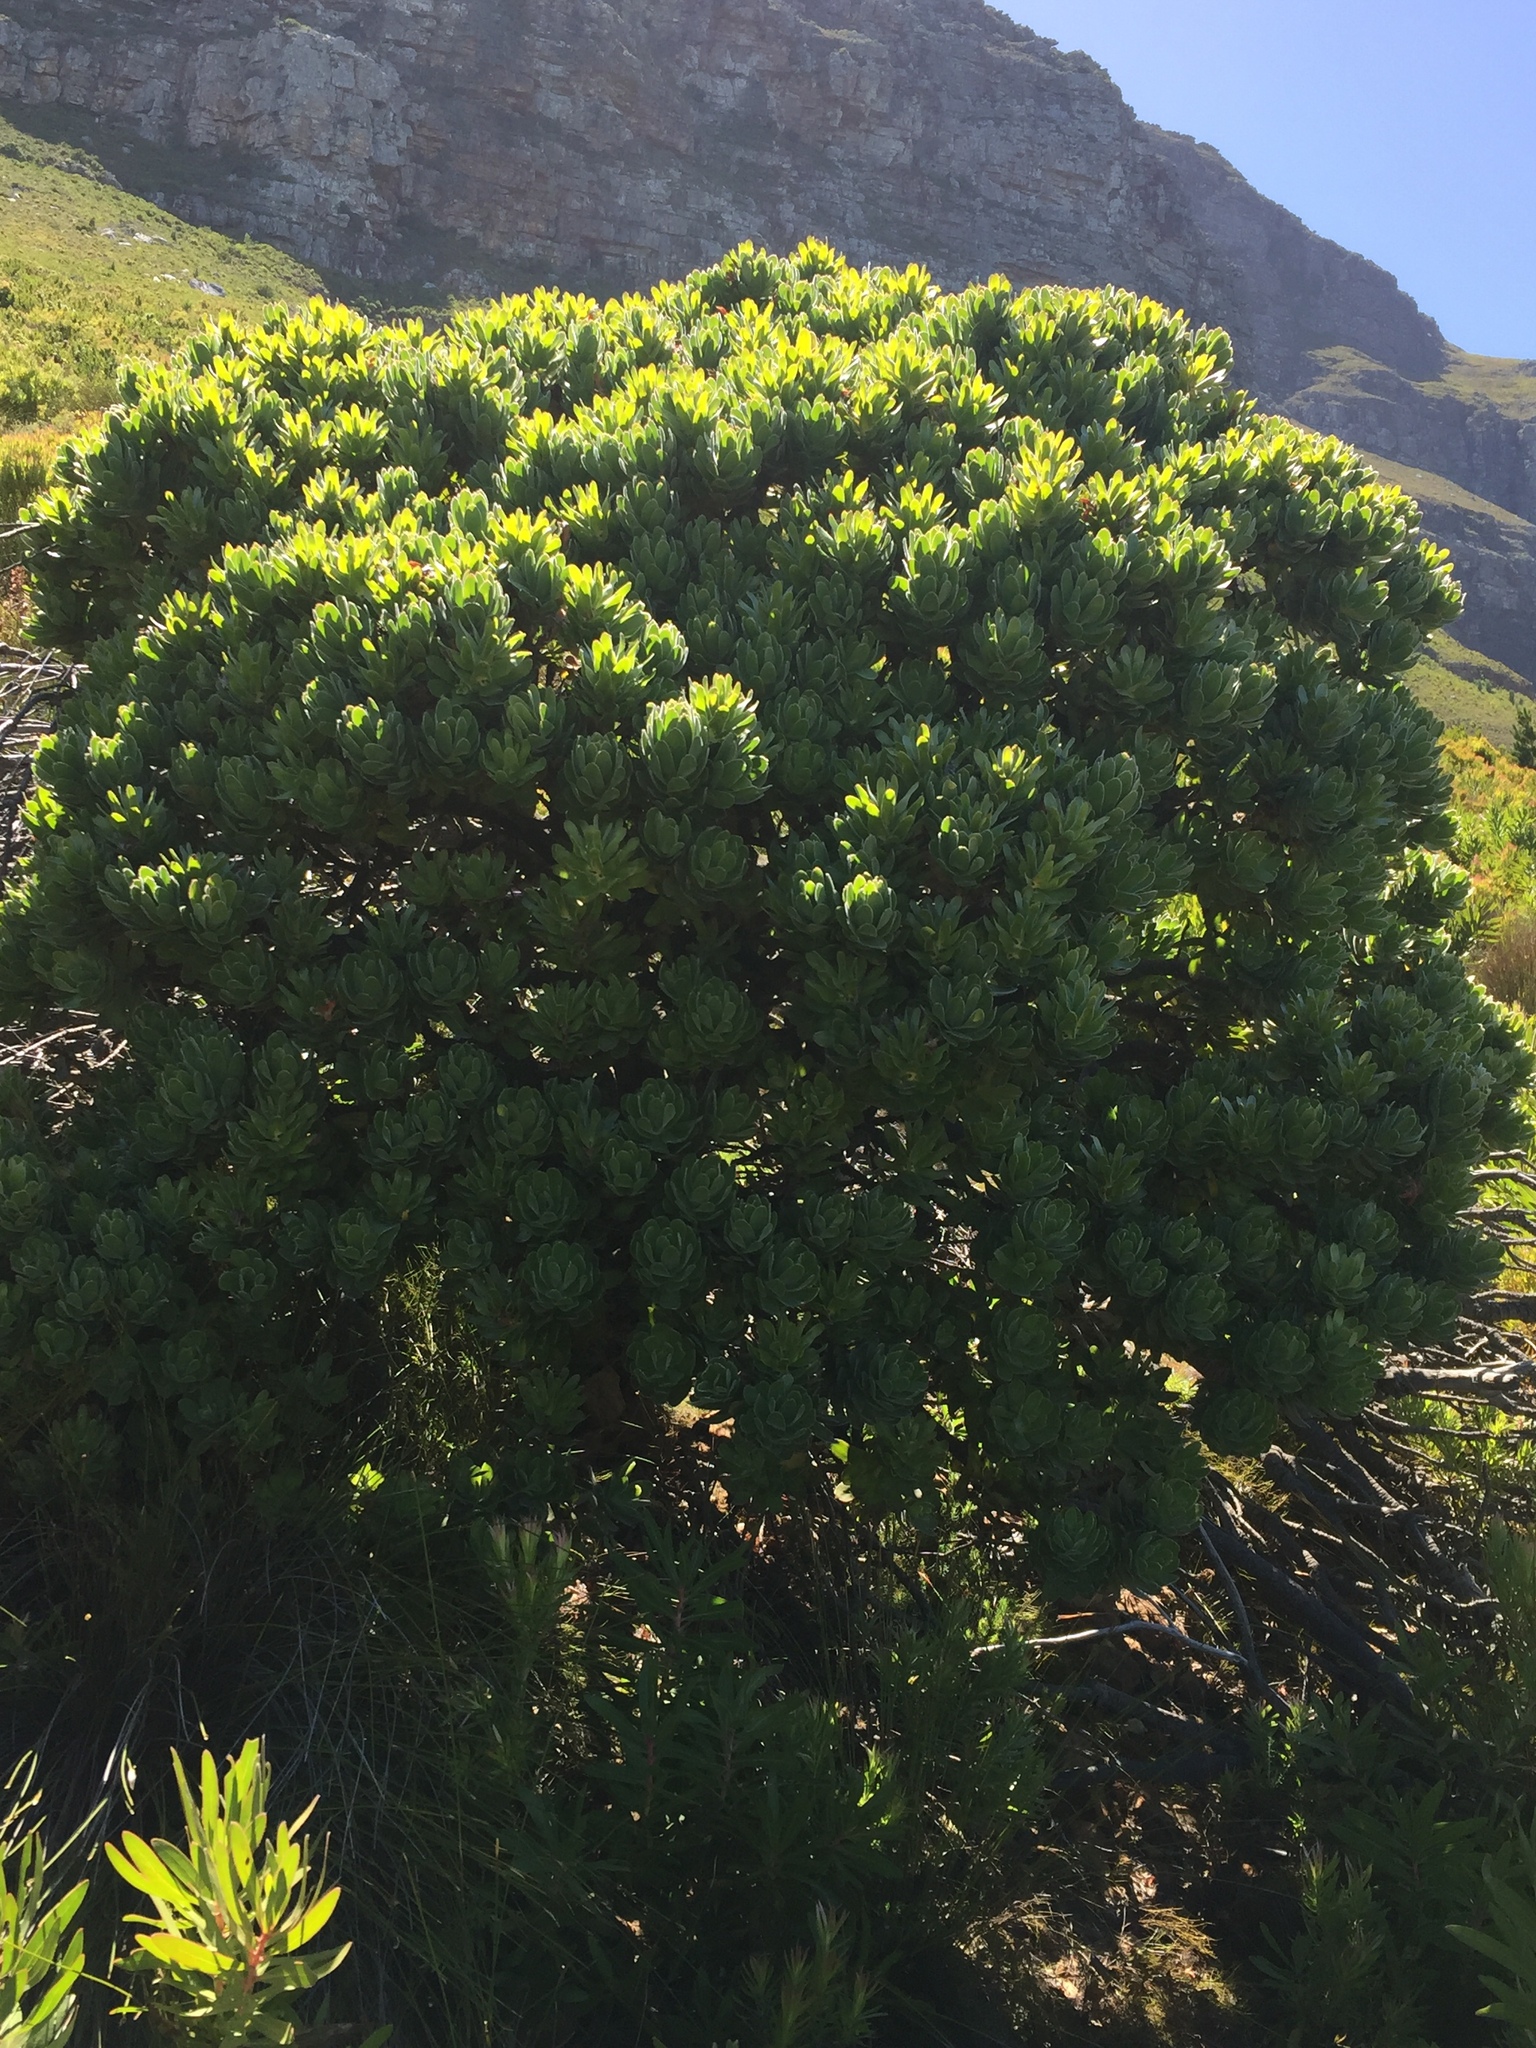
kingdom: Plantae
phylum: Tracheophyta
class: Magnoliopsida
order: Proteales
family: Proteaceae
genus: Mimetes
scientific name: Mimetes fimbriifolius
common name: Fringed bottlebrush
